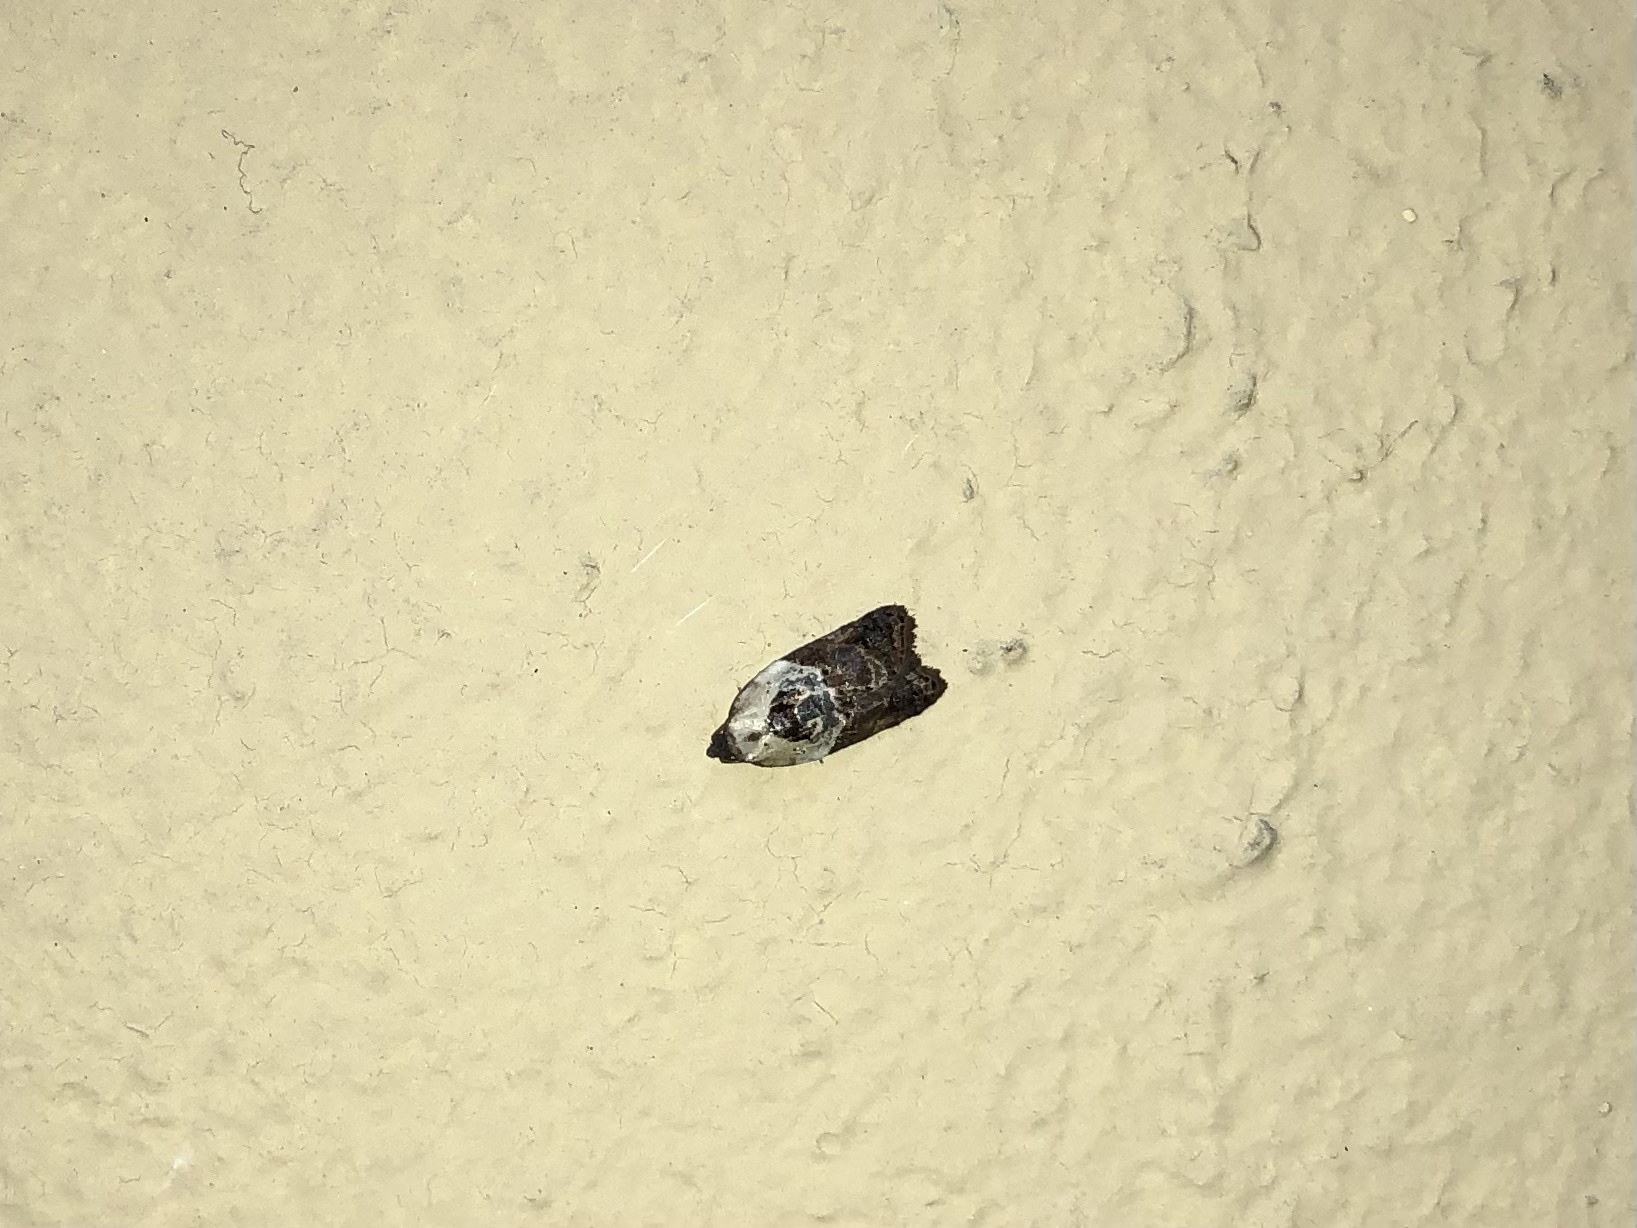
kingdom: Animalia
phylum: Arthropoda
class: Insecta
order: Lepidoptera
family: Tortricidae
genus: Acleris
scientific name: Acleris variegana
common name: Garden rose tortrix
